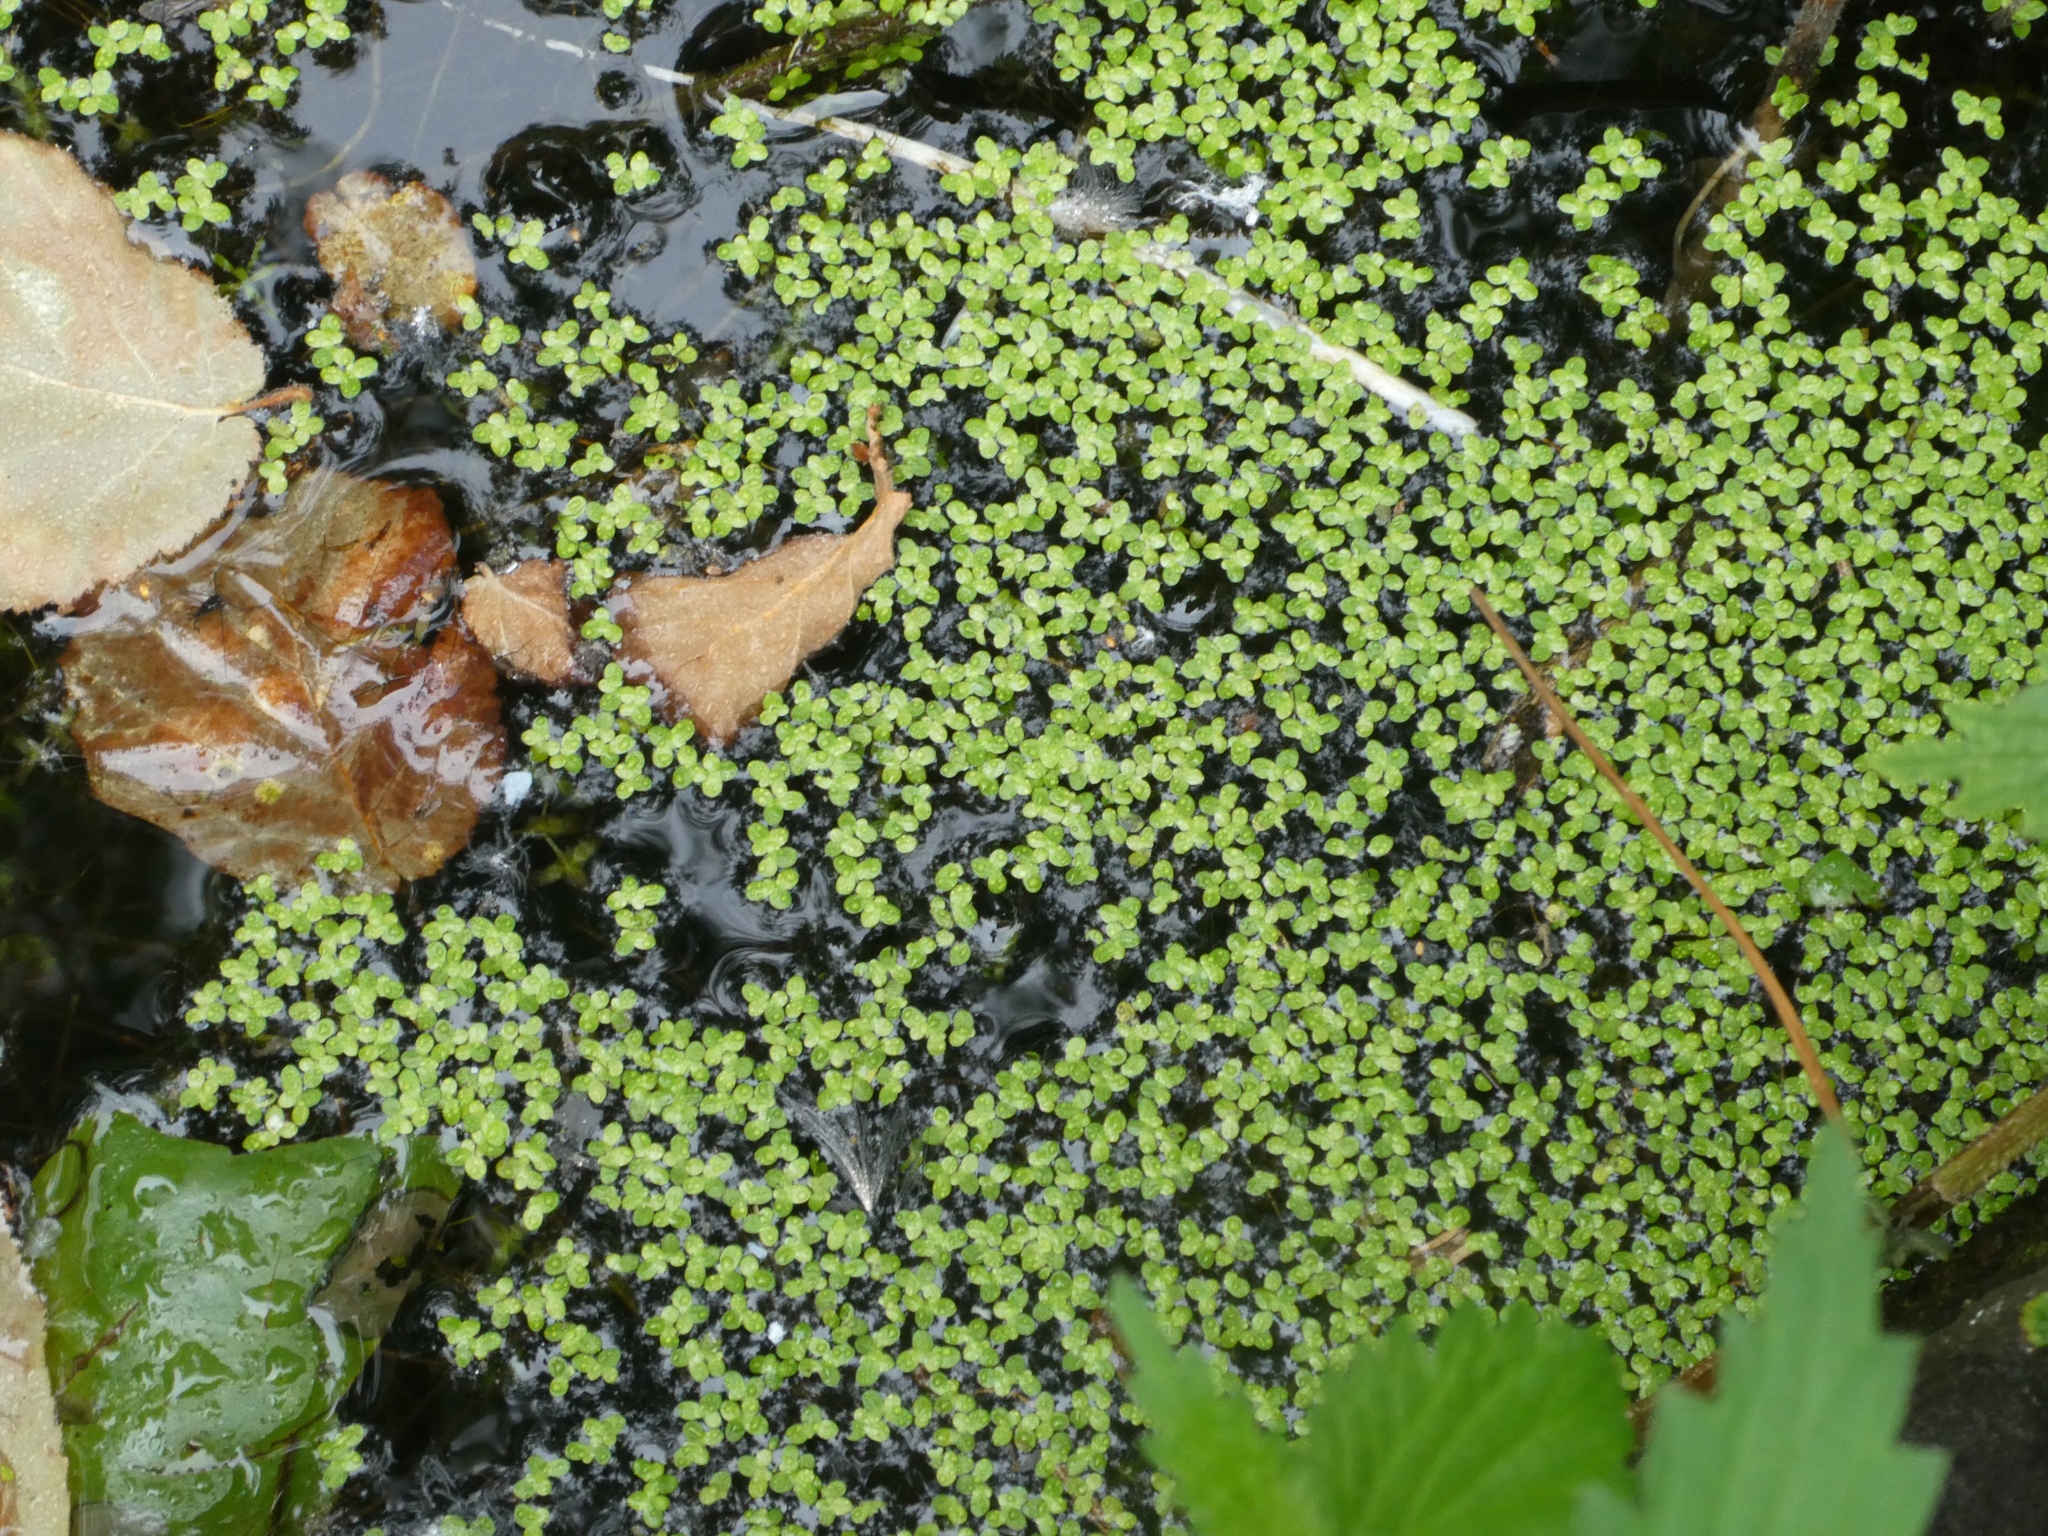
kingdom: Plantae
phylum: Tracheophyta
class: Liliopsida
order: Alismatales
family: Araceae
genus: Lemna
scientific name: Lemna minor
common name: Common duckweed
